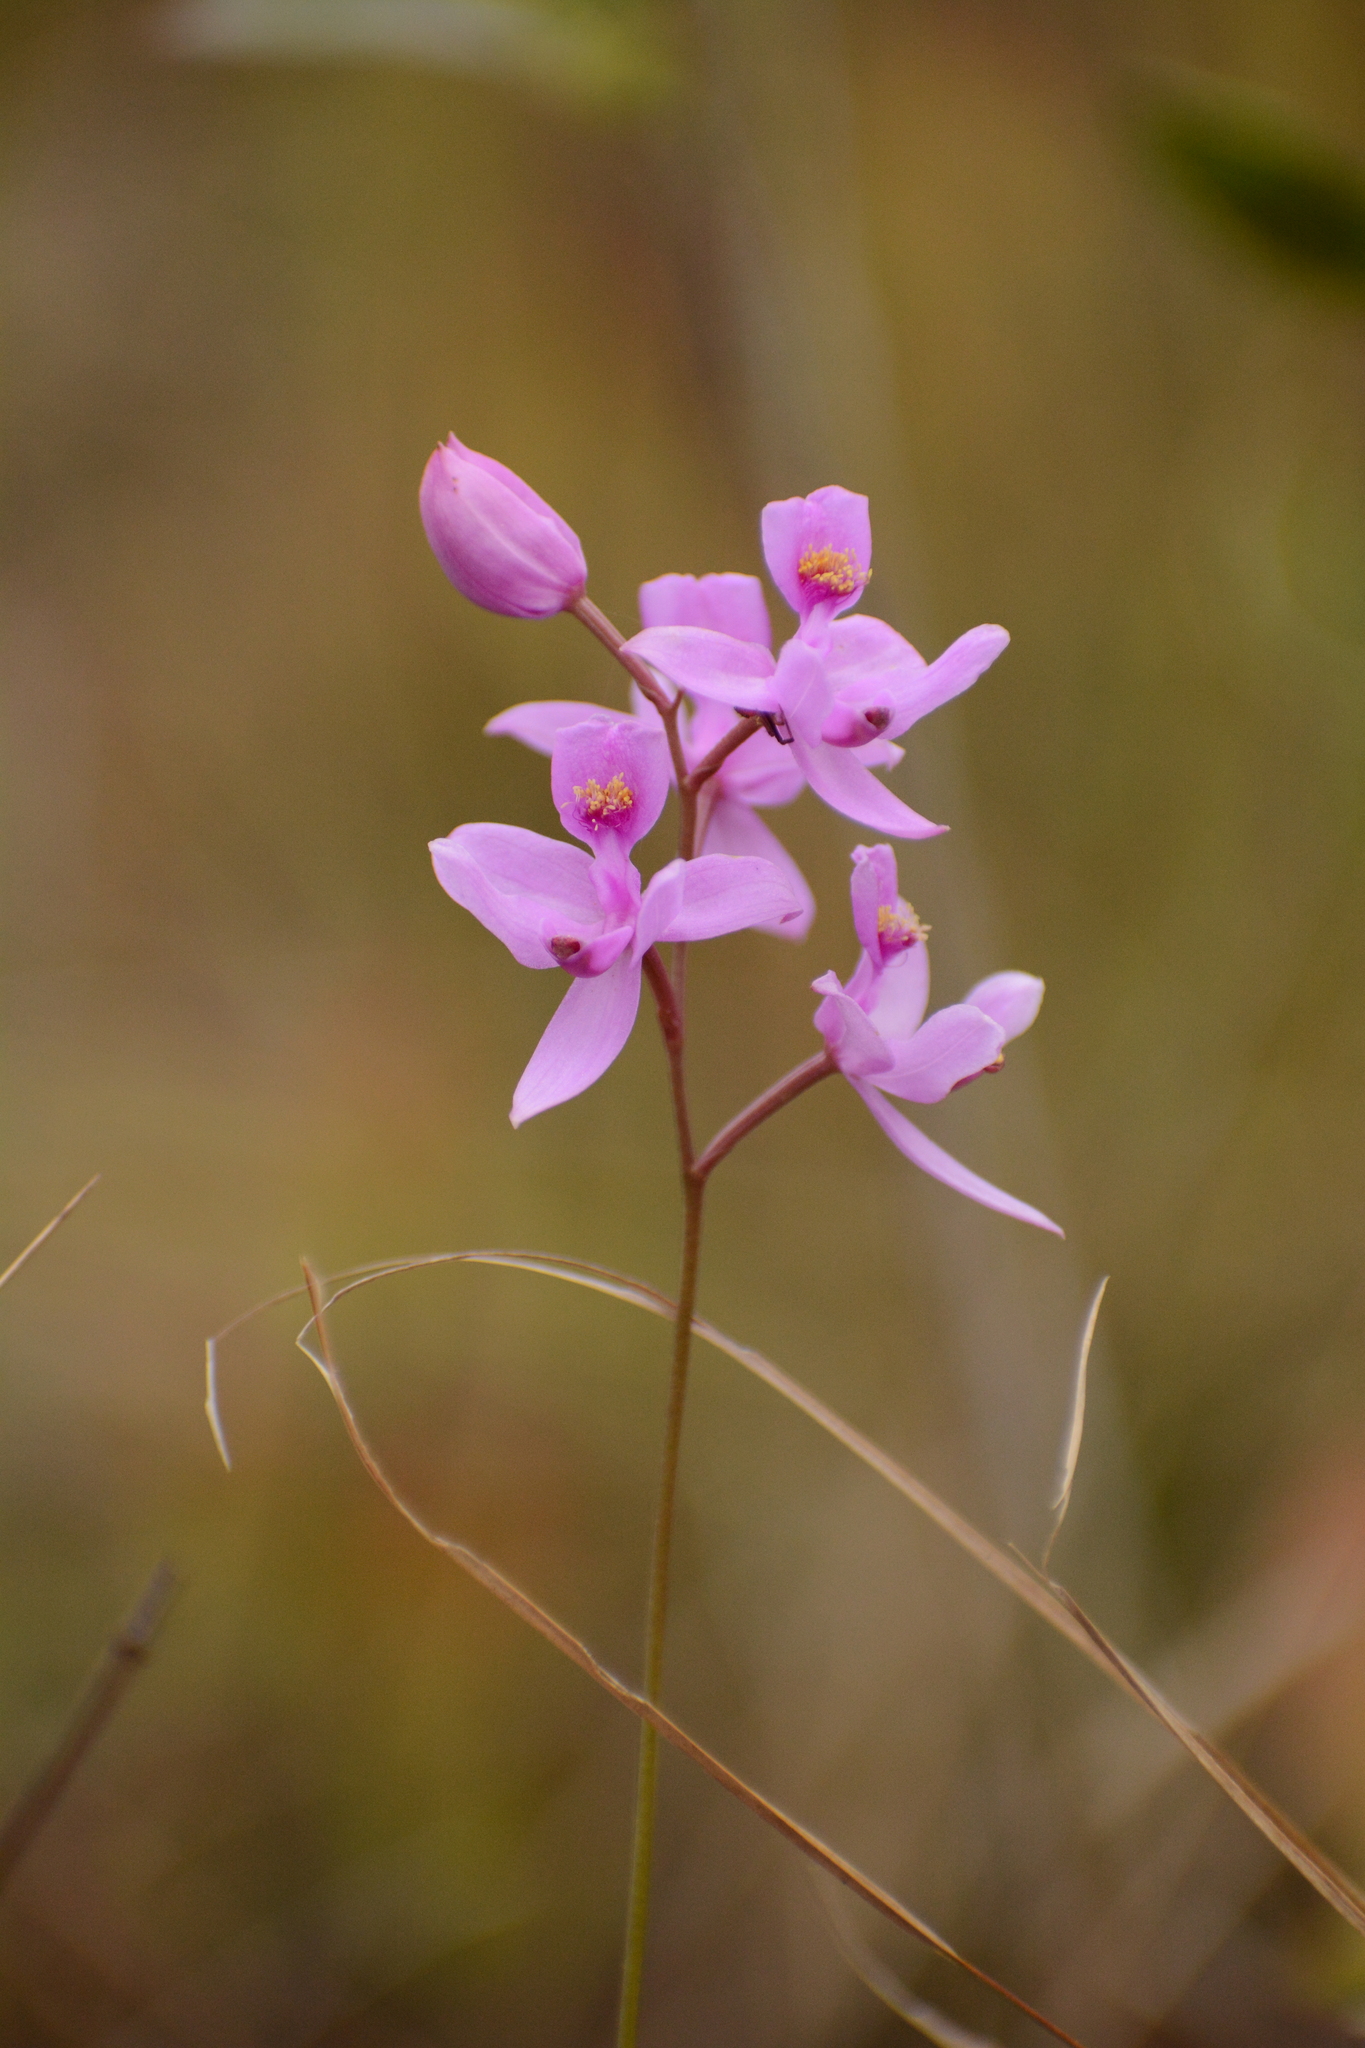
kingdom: Plantae
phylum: Tracheophyta
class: Liliopsida
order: Asparagales
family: Orchidaceae
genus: Calopogon
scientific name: Calopogon barbatus
